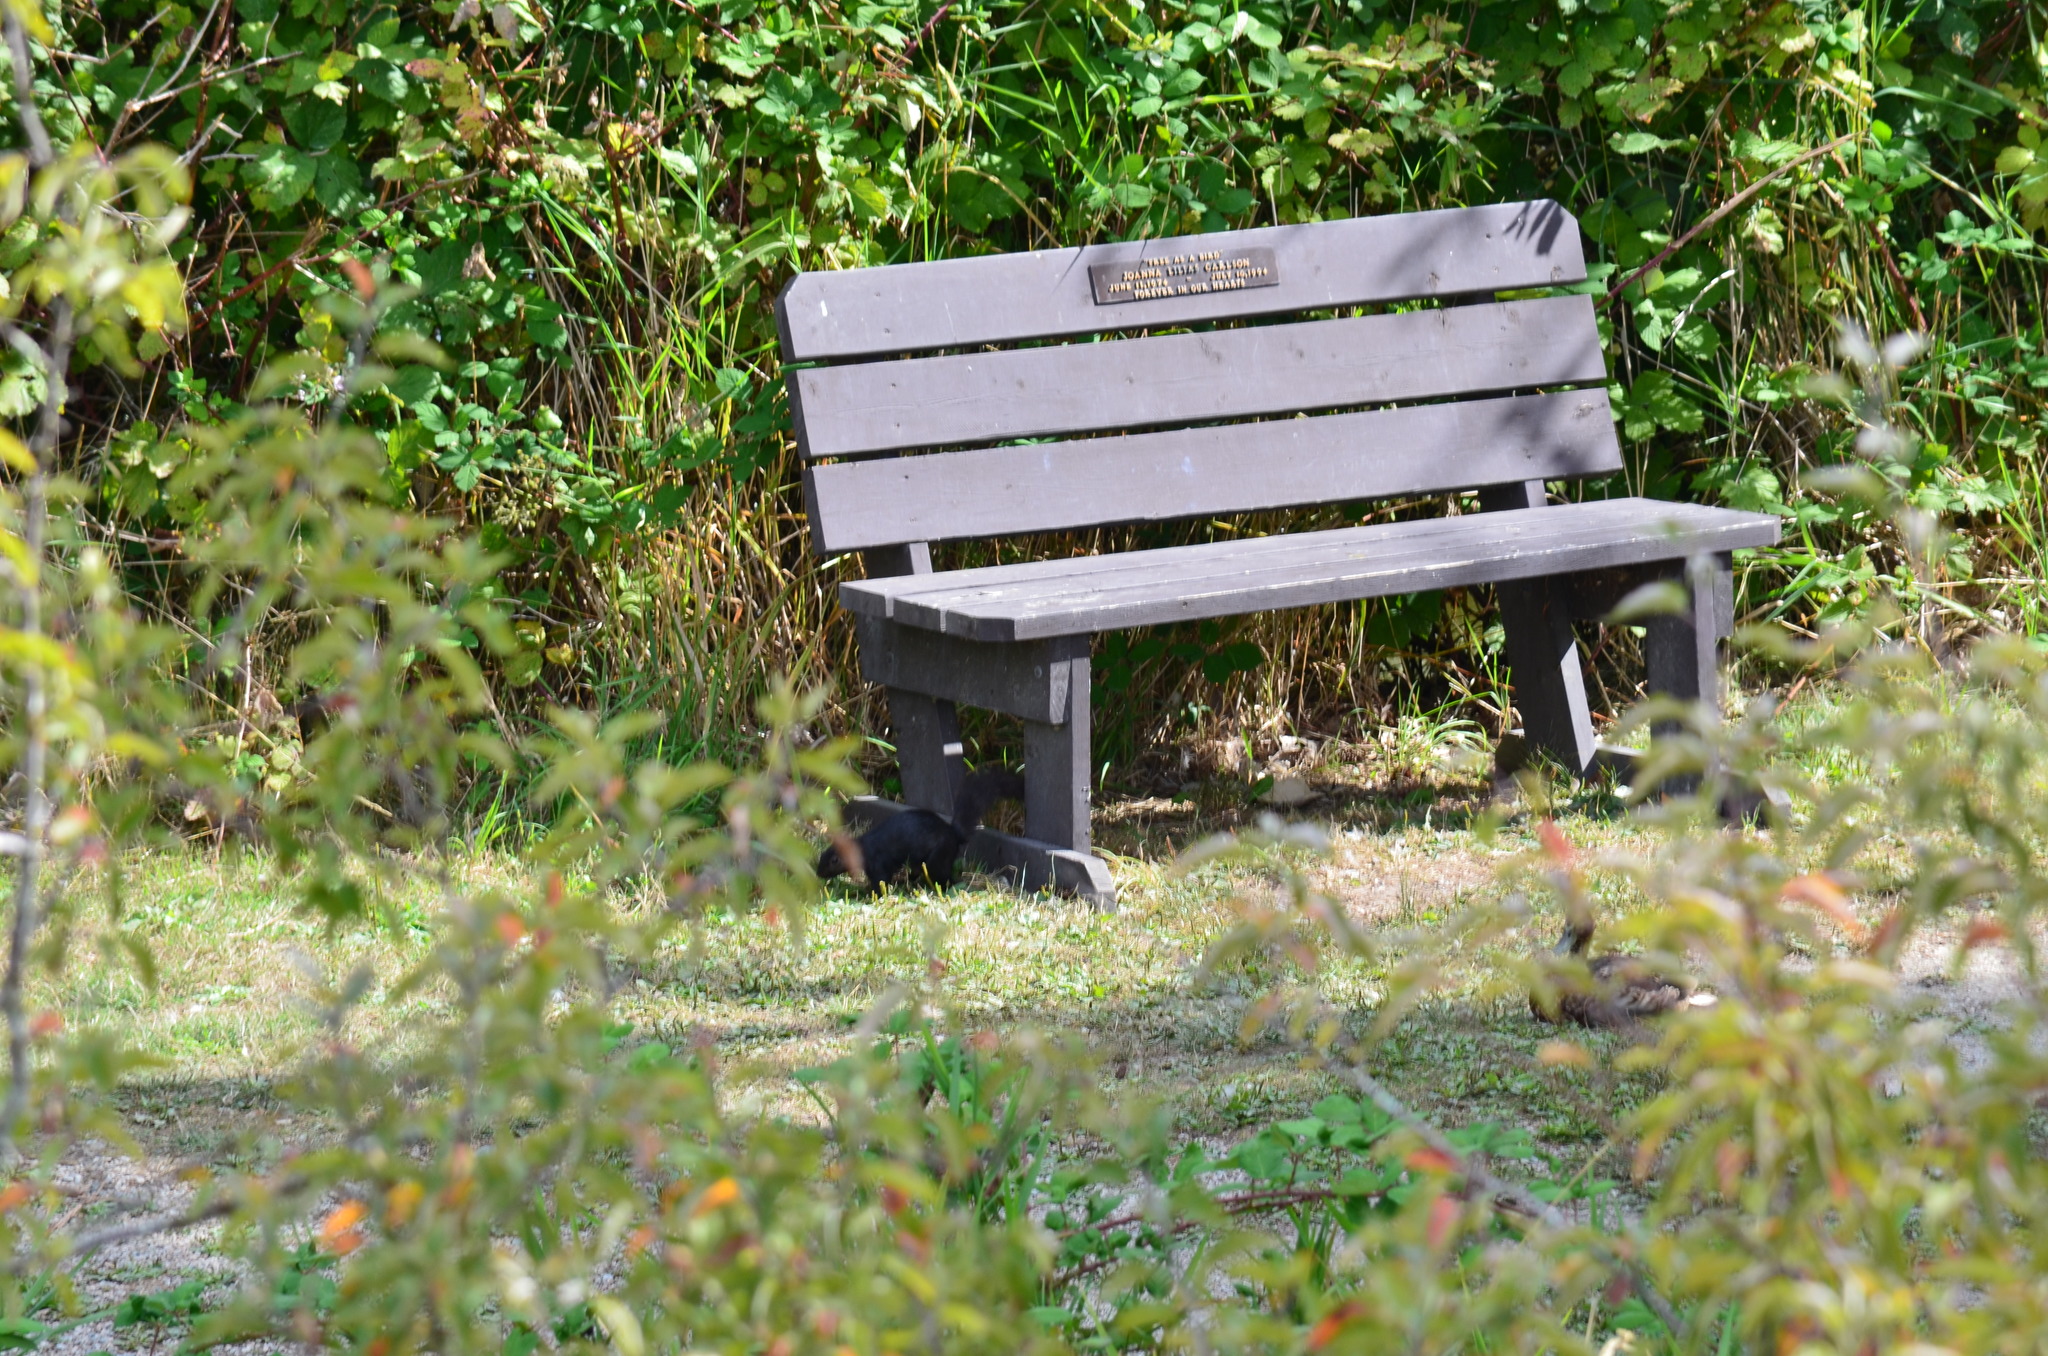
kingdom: Animalia
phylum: Chordata
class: Mammalia
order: Rodentia
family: Sciuridae
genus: Sciurus
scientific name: Sciurus carolinensis
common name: Eastern gray squirrel
